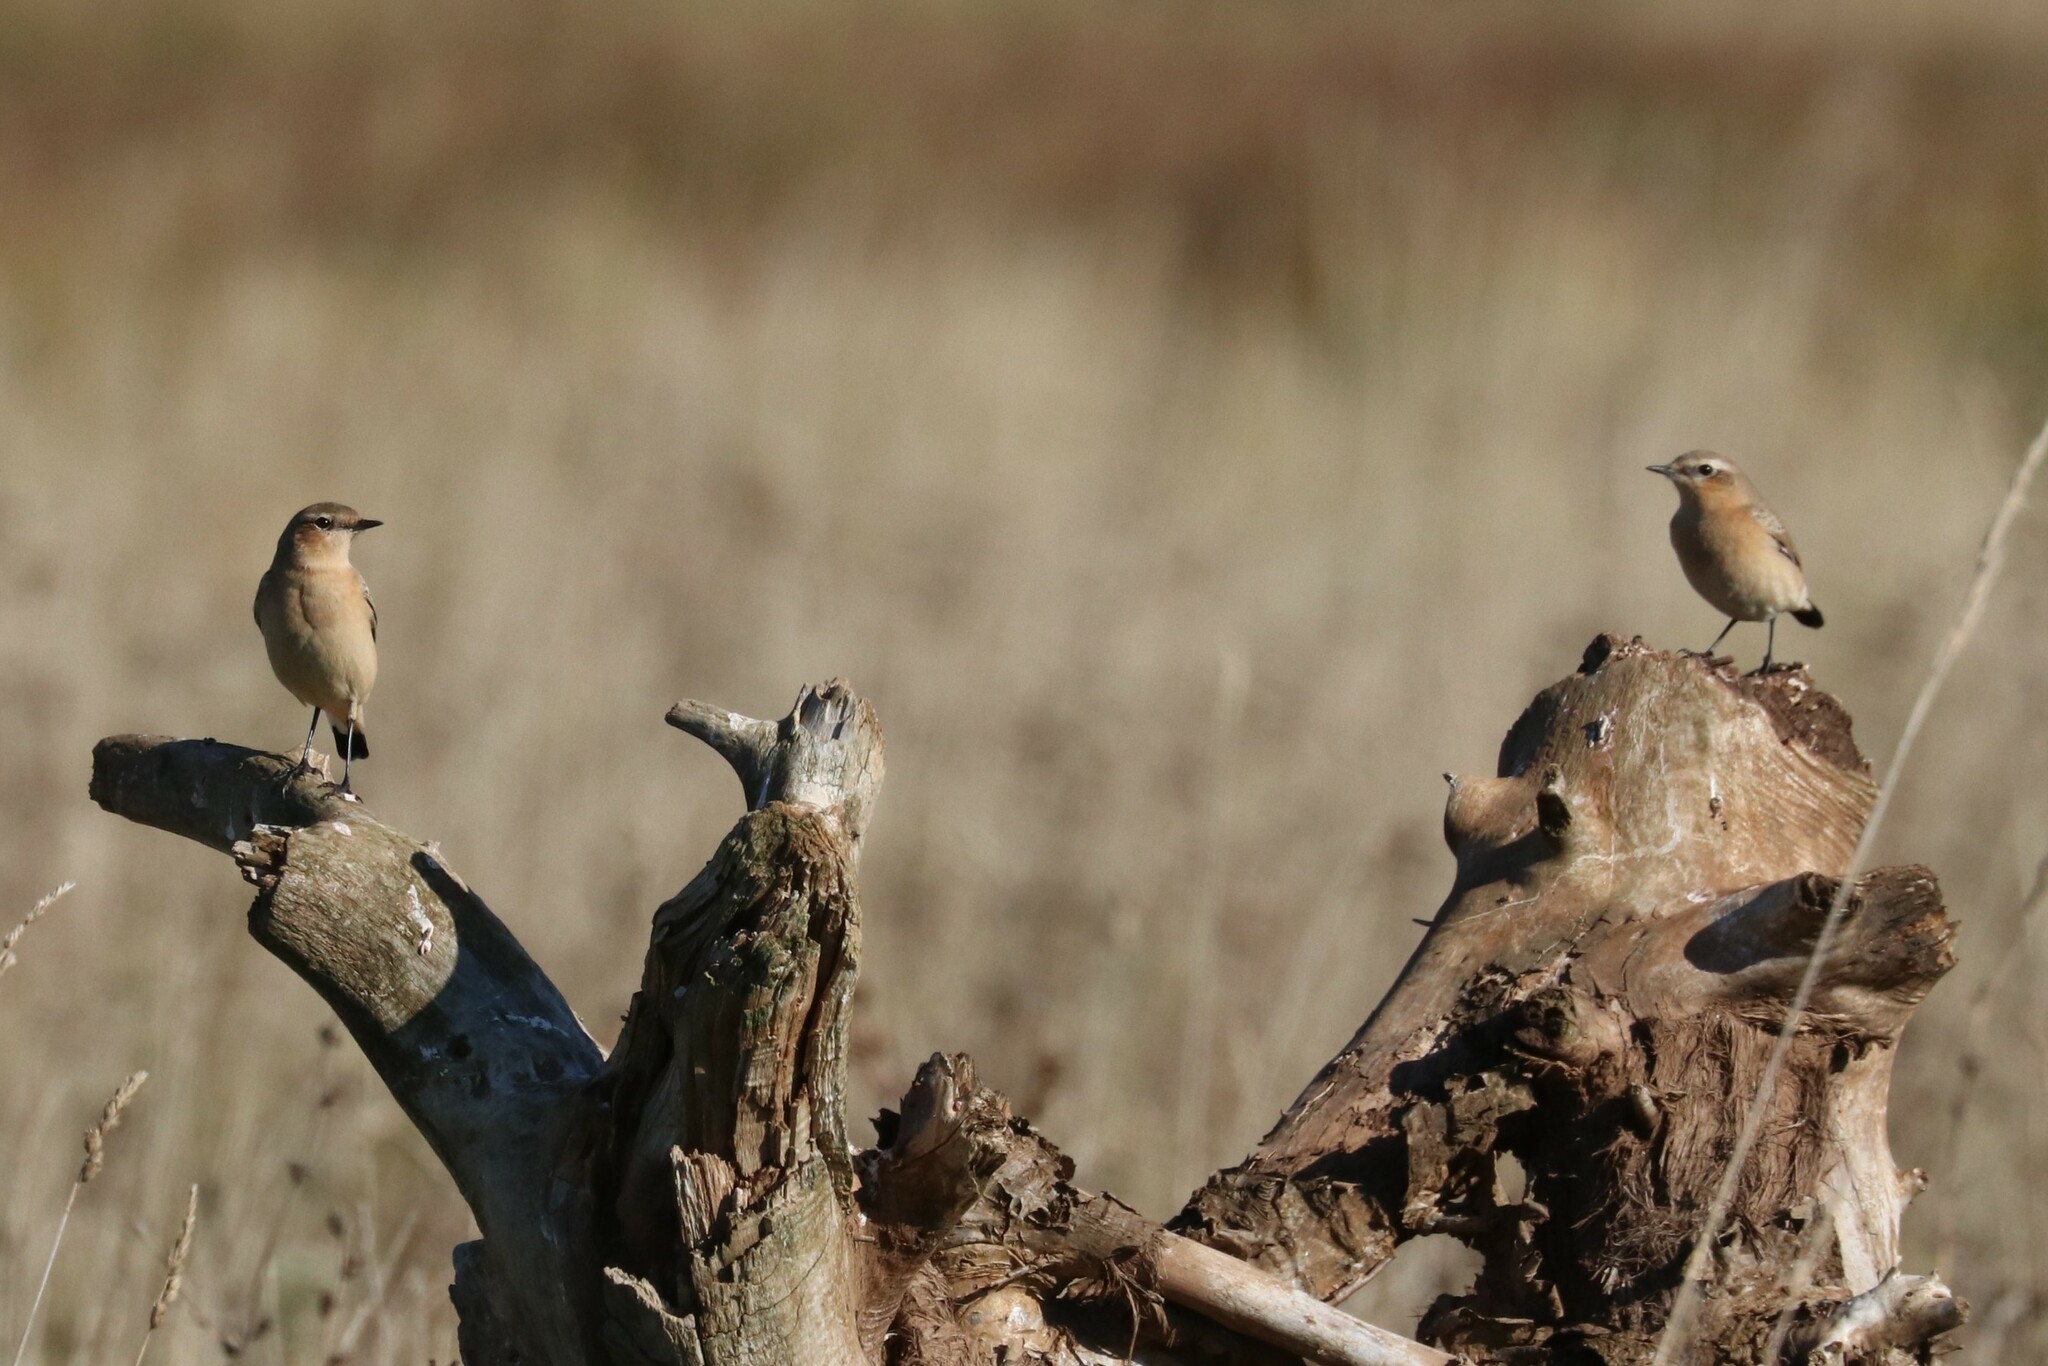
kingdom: Animalia
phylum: Chordata
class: Aves
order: Passeriformes
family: Muscicapidae
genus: Oenanthe
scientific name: Oenanthe oenanthe
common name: Northern wheatear
